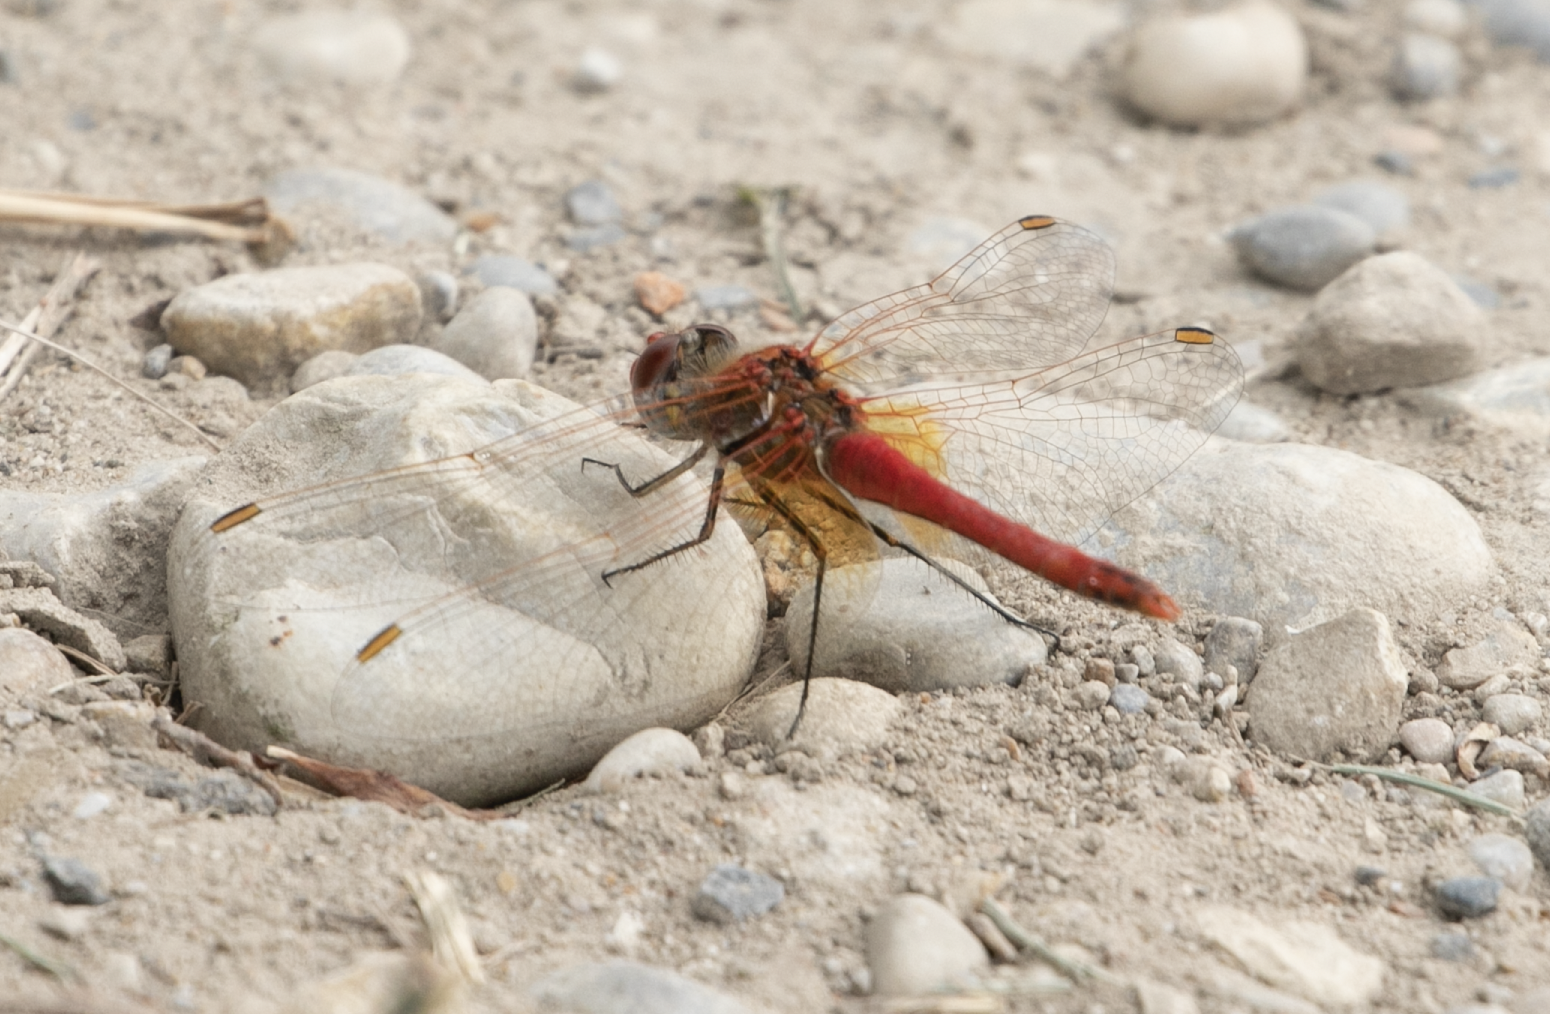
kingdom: Animalia
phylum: Arthropoda
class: Insecta
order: Odonata
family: Libellulidae
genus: Sympetrum
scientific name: Sympetrum fonscolombii
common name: Red-veined darter
